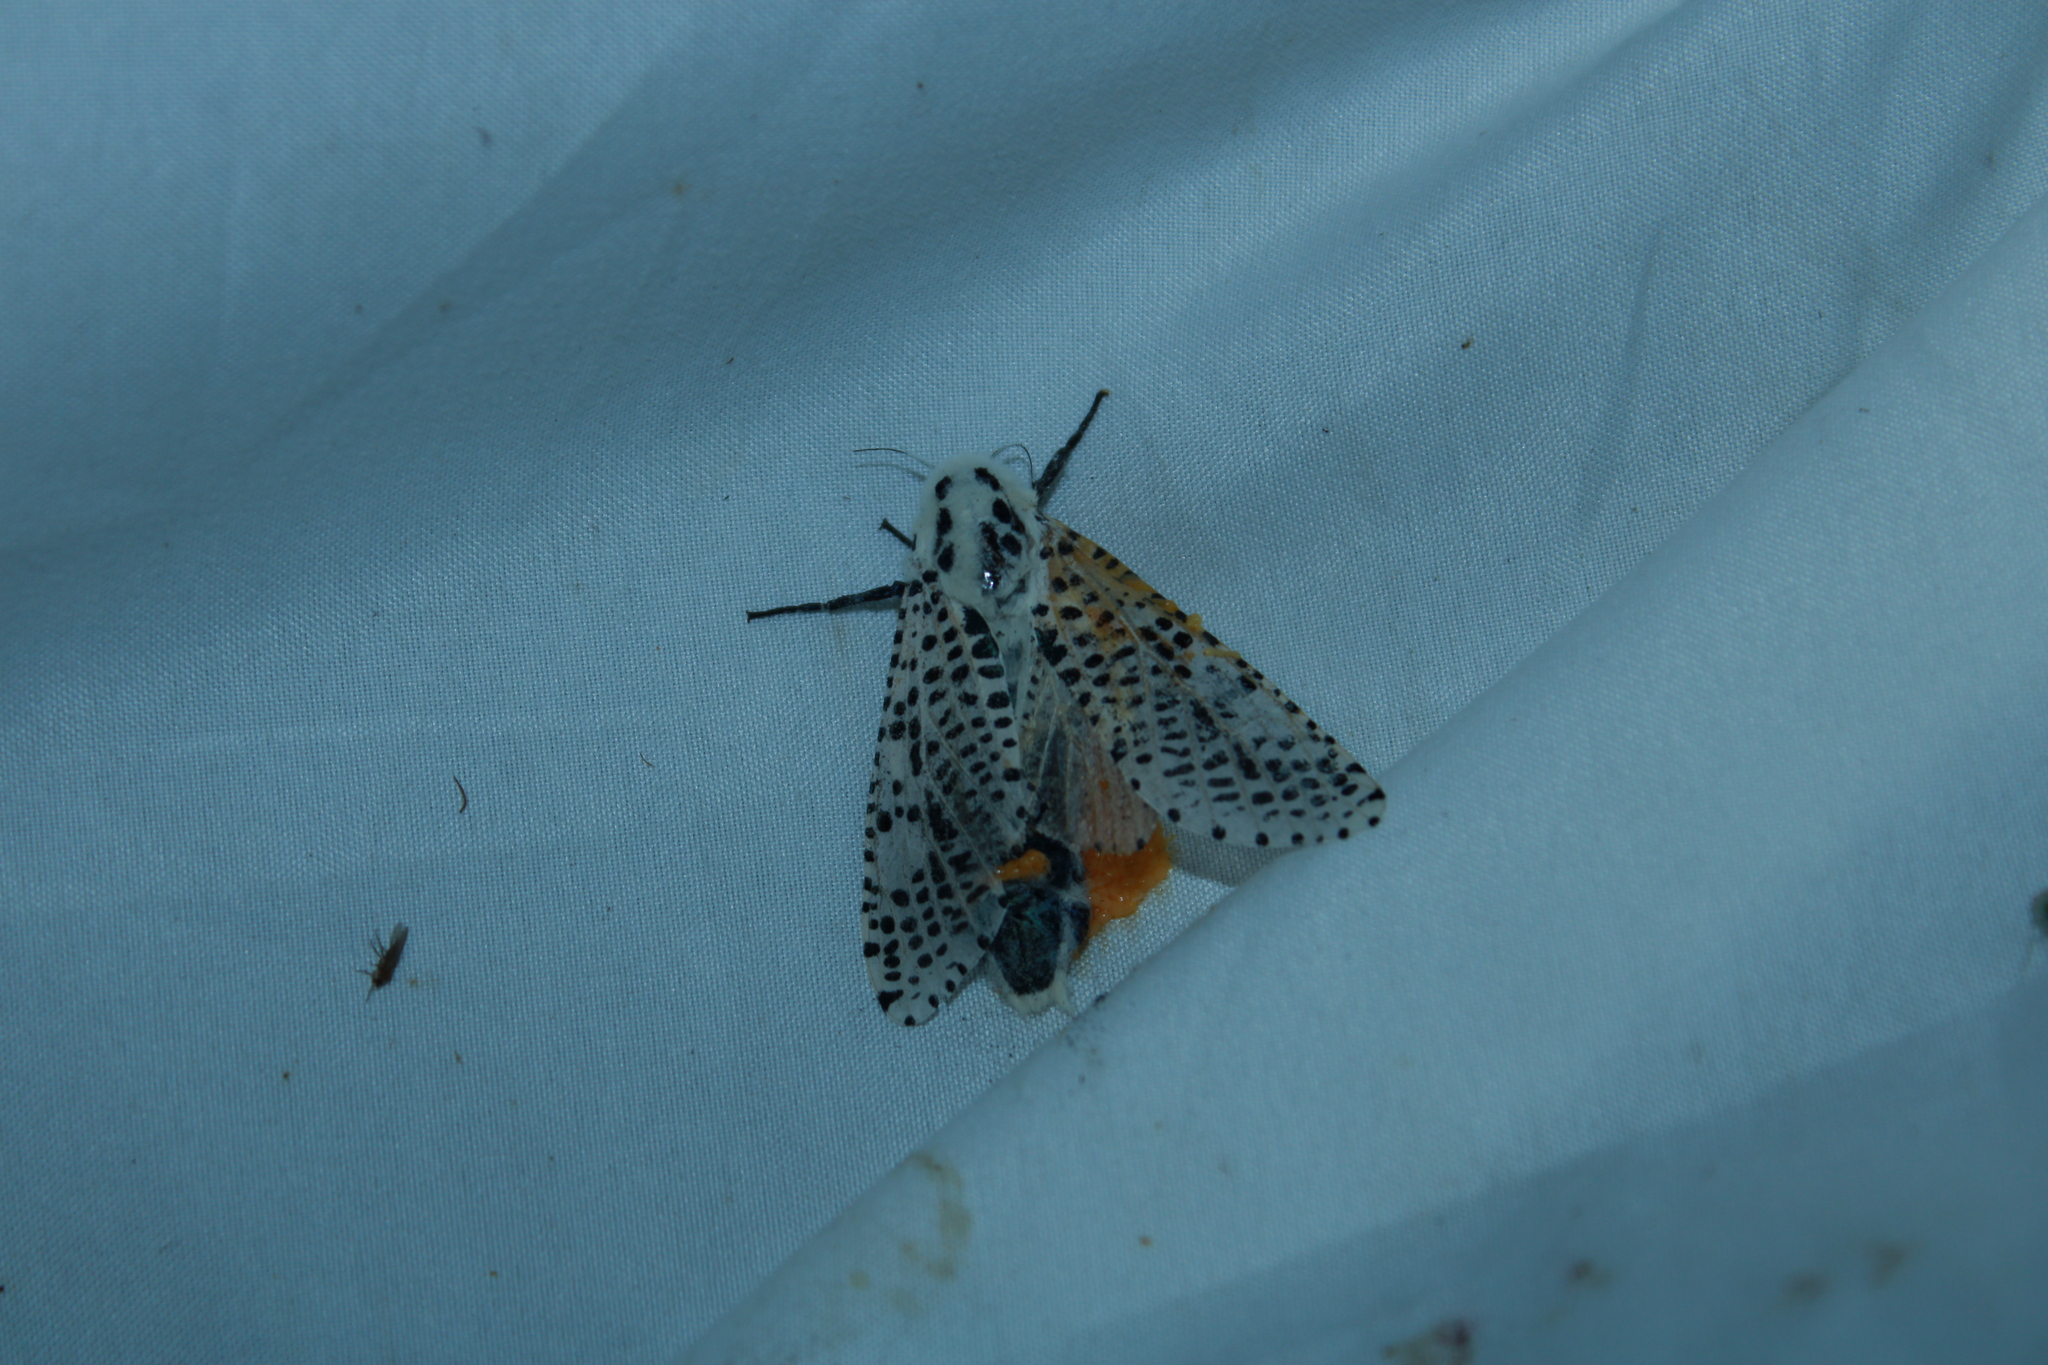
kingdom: Animalia
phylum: Arthropoda
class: Insecta
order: Lepidoptera
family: Cossidae
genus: Zeuzera
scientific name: Zeuzera pyrina
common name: Leopard moth
